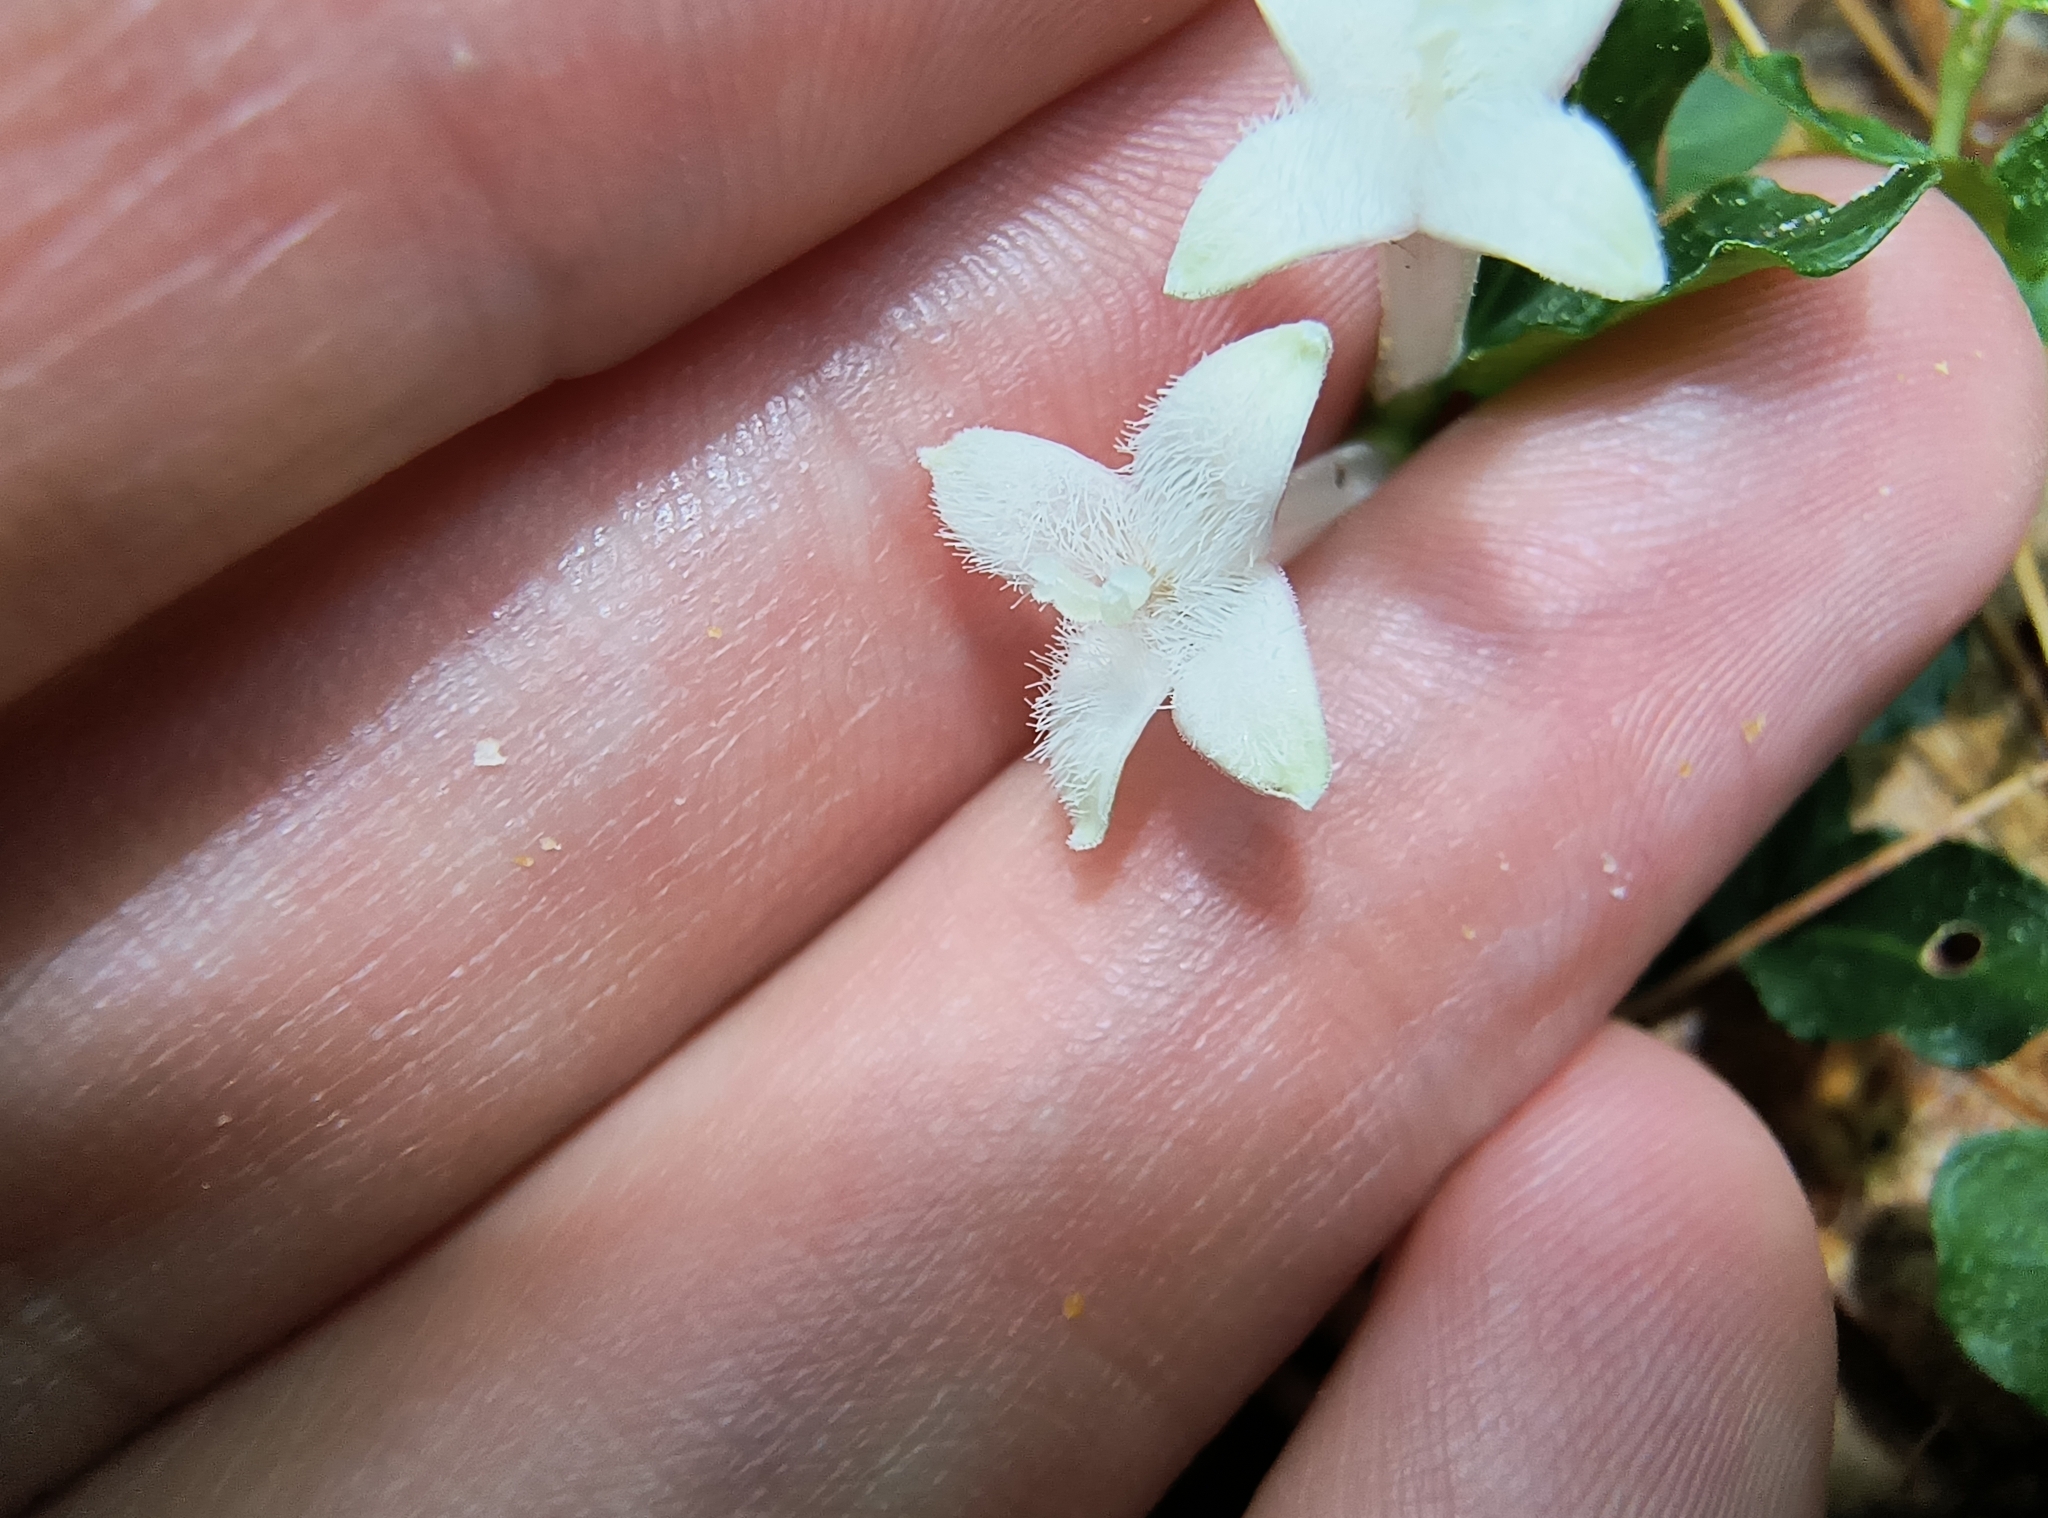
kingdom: Plantae
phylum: Tracheophyta
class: Magnoliopsida
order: Gentianales
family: Rubiaceae
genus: Mitchella
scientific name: Mitchella repens
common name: Partridge-berry
